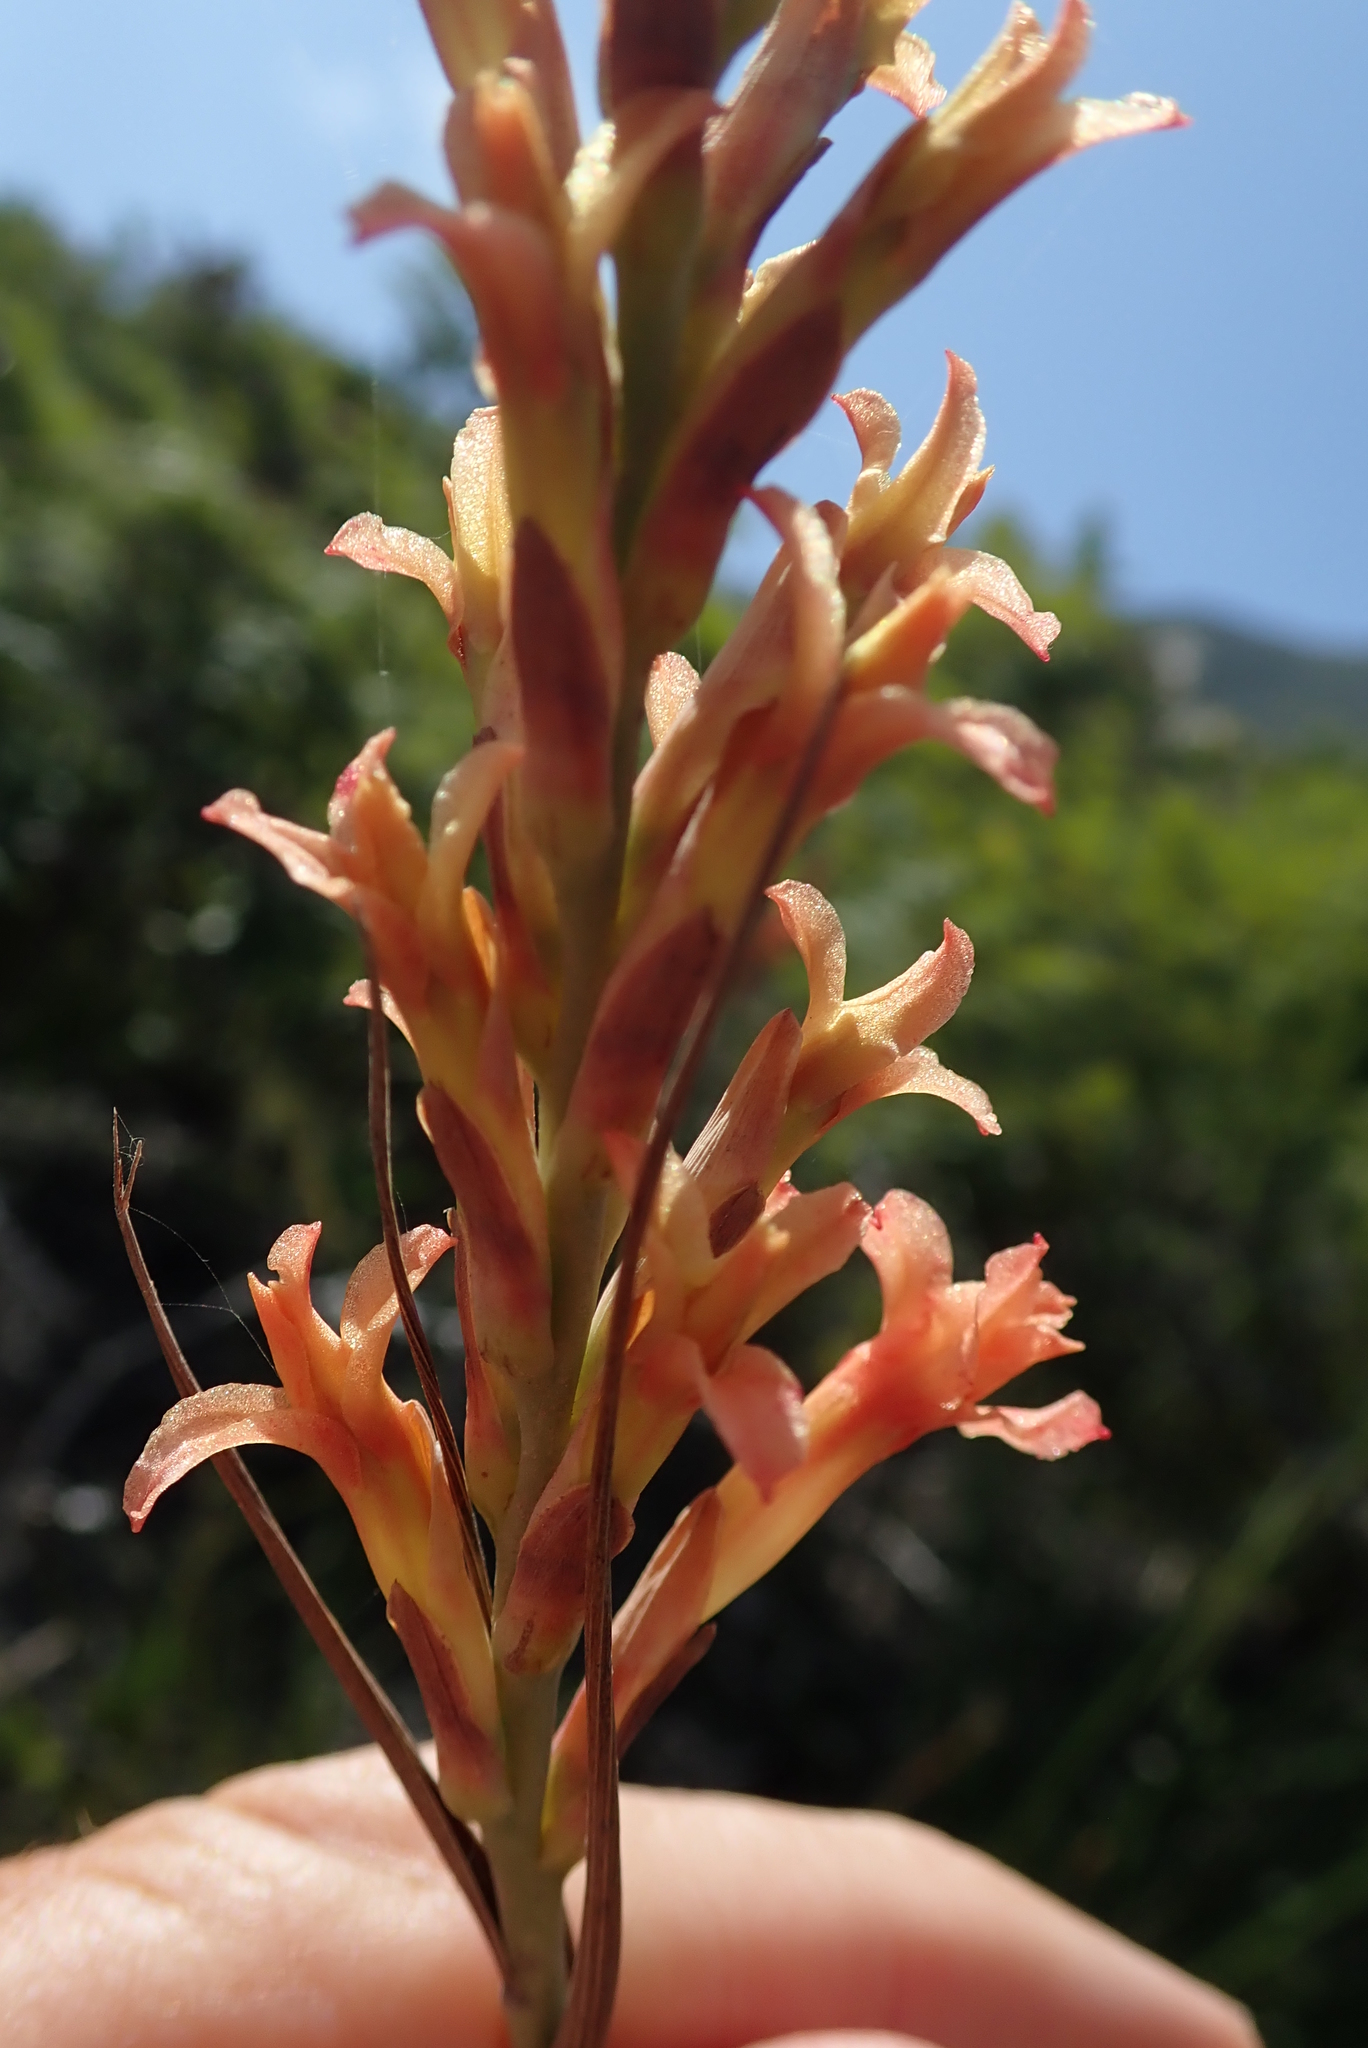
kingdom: Plantae
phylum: Tracheophyta
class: Liliopsida
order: Asparagales
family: Iridaceae
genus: Tritoniopsis
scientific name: Tritoniopsis antholyza
